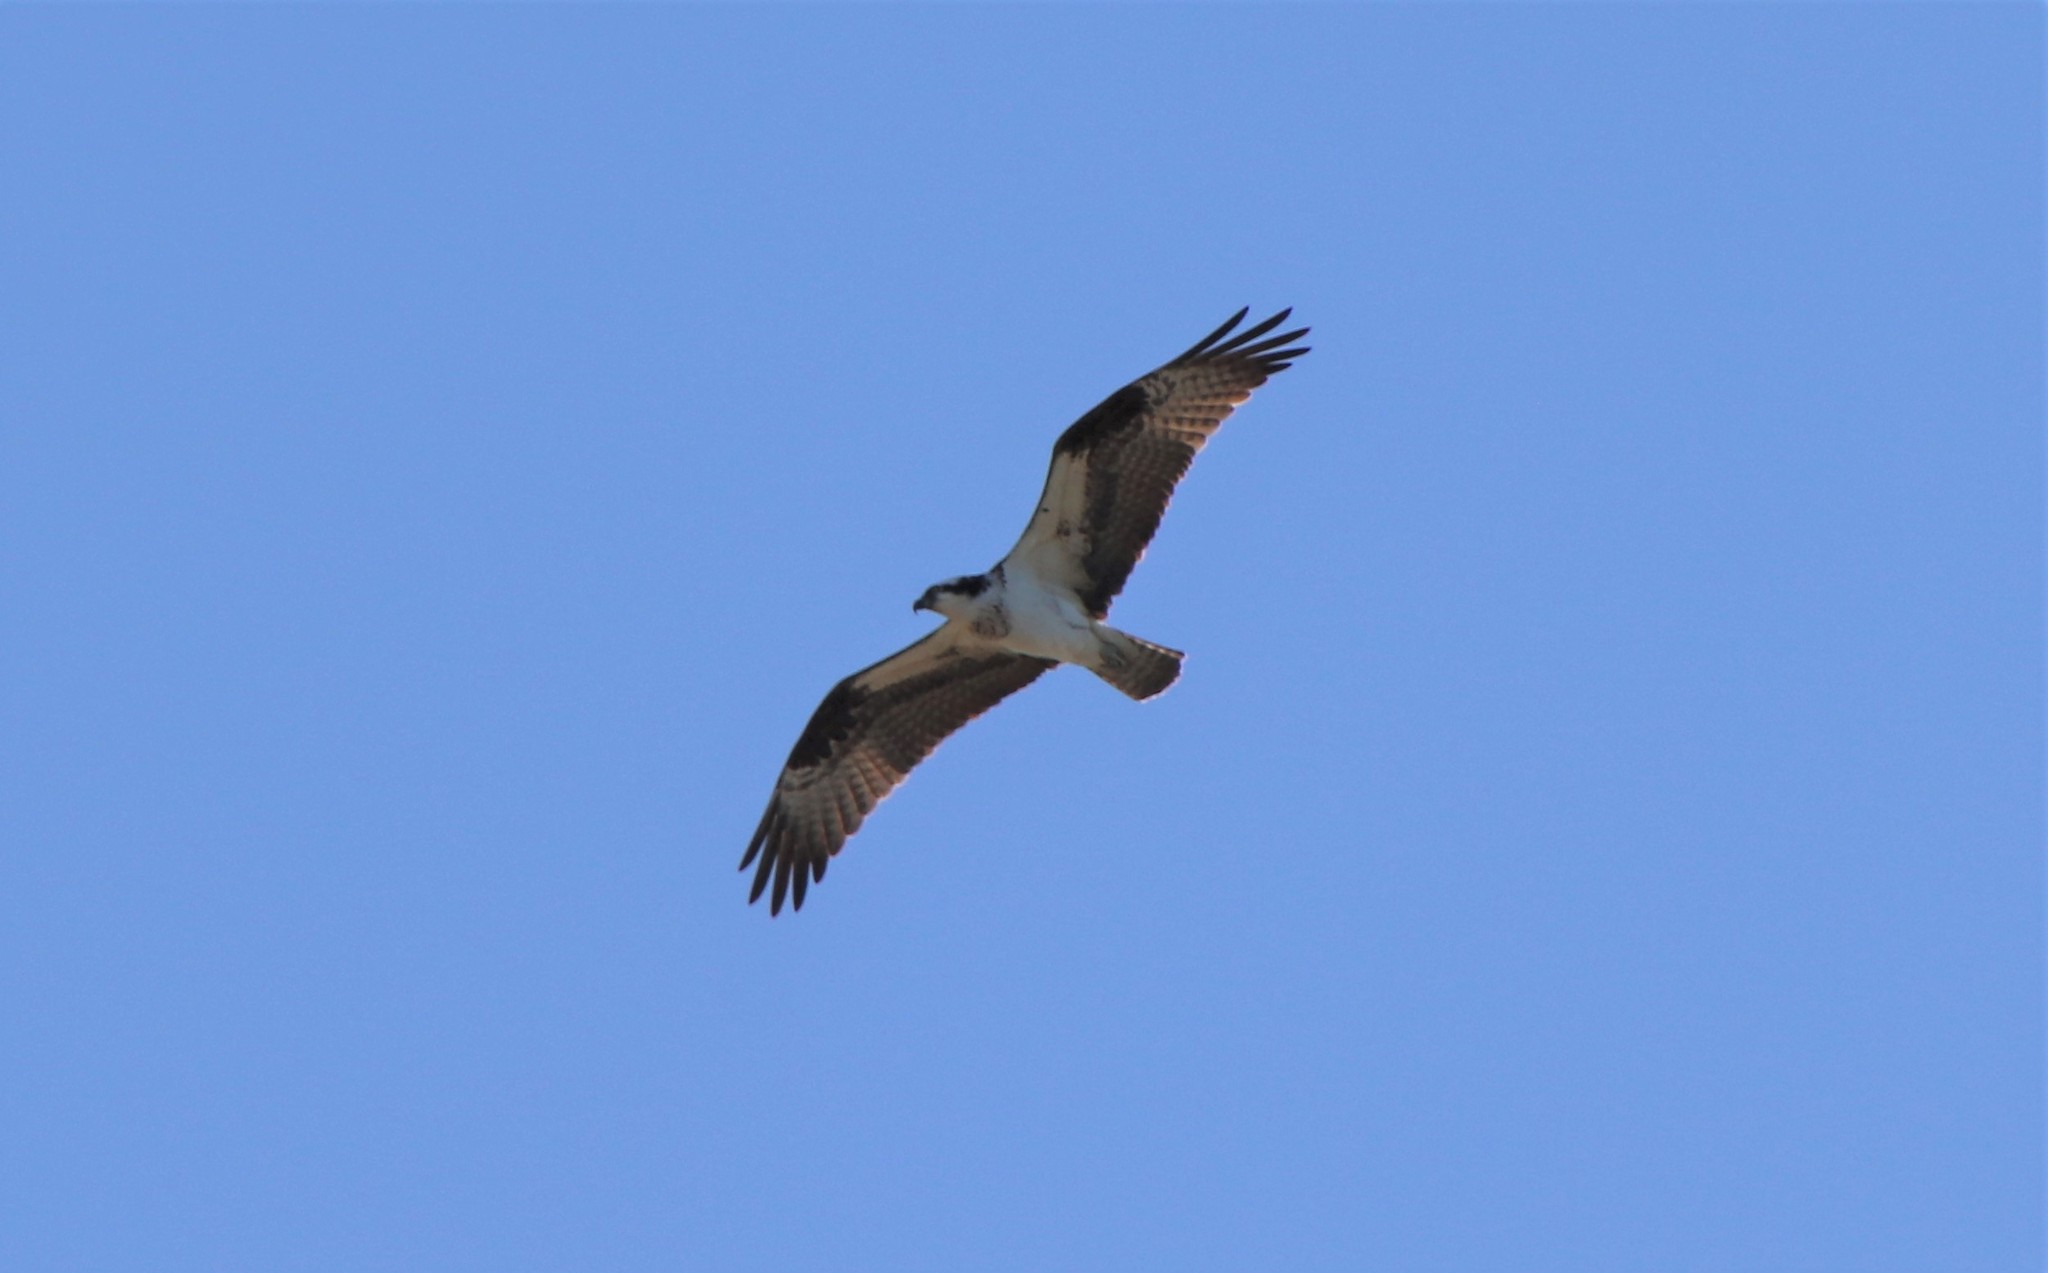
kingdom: Animalia
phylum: Chordata
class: Aves
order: Accipitriformes
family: Pandionidae
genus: Pandion
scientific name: Pandion haliaetus
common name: Osprey
